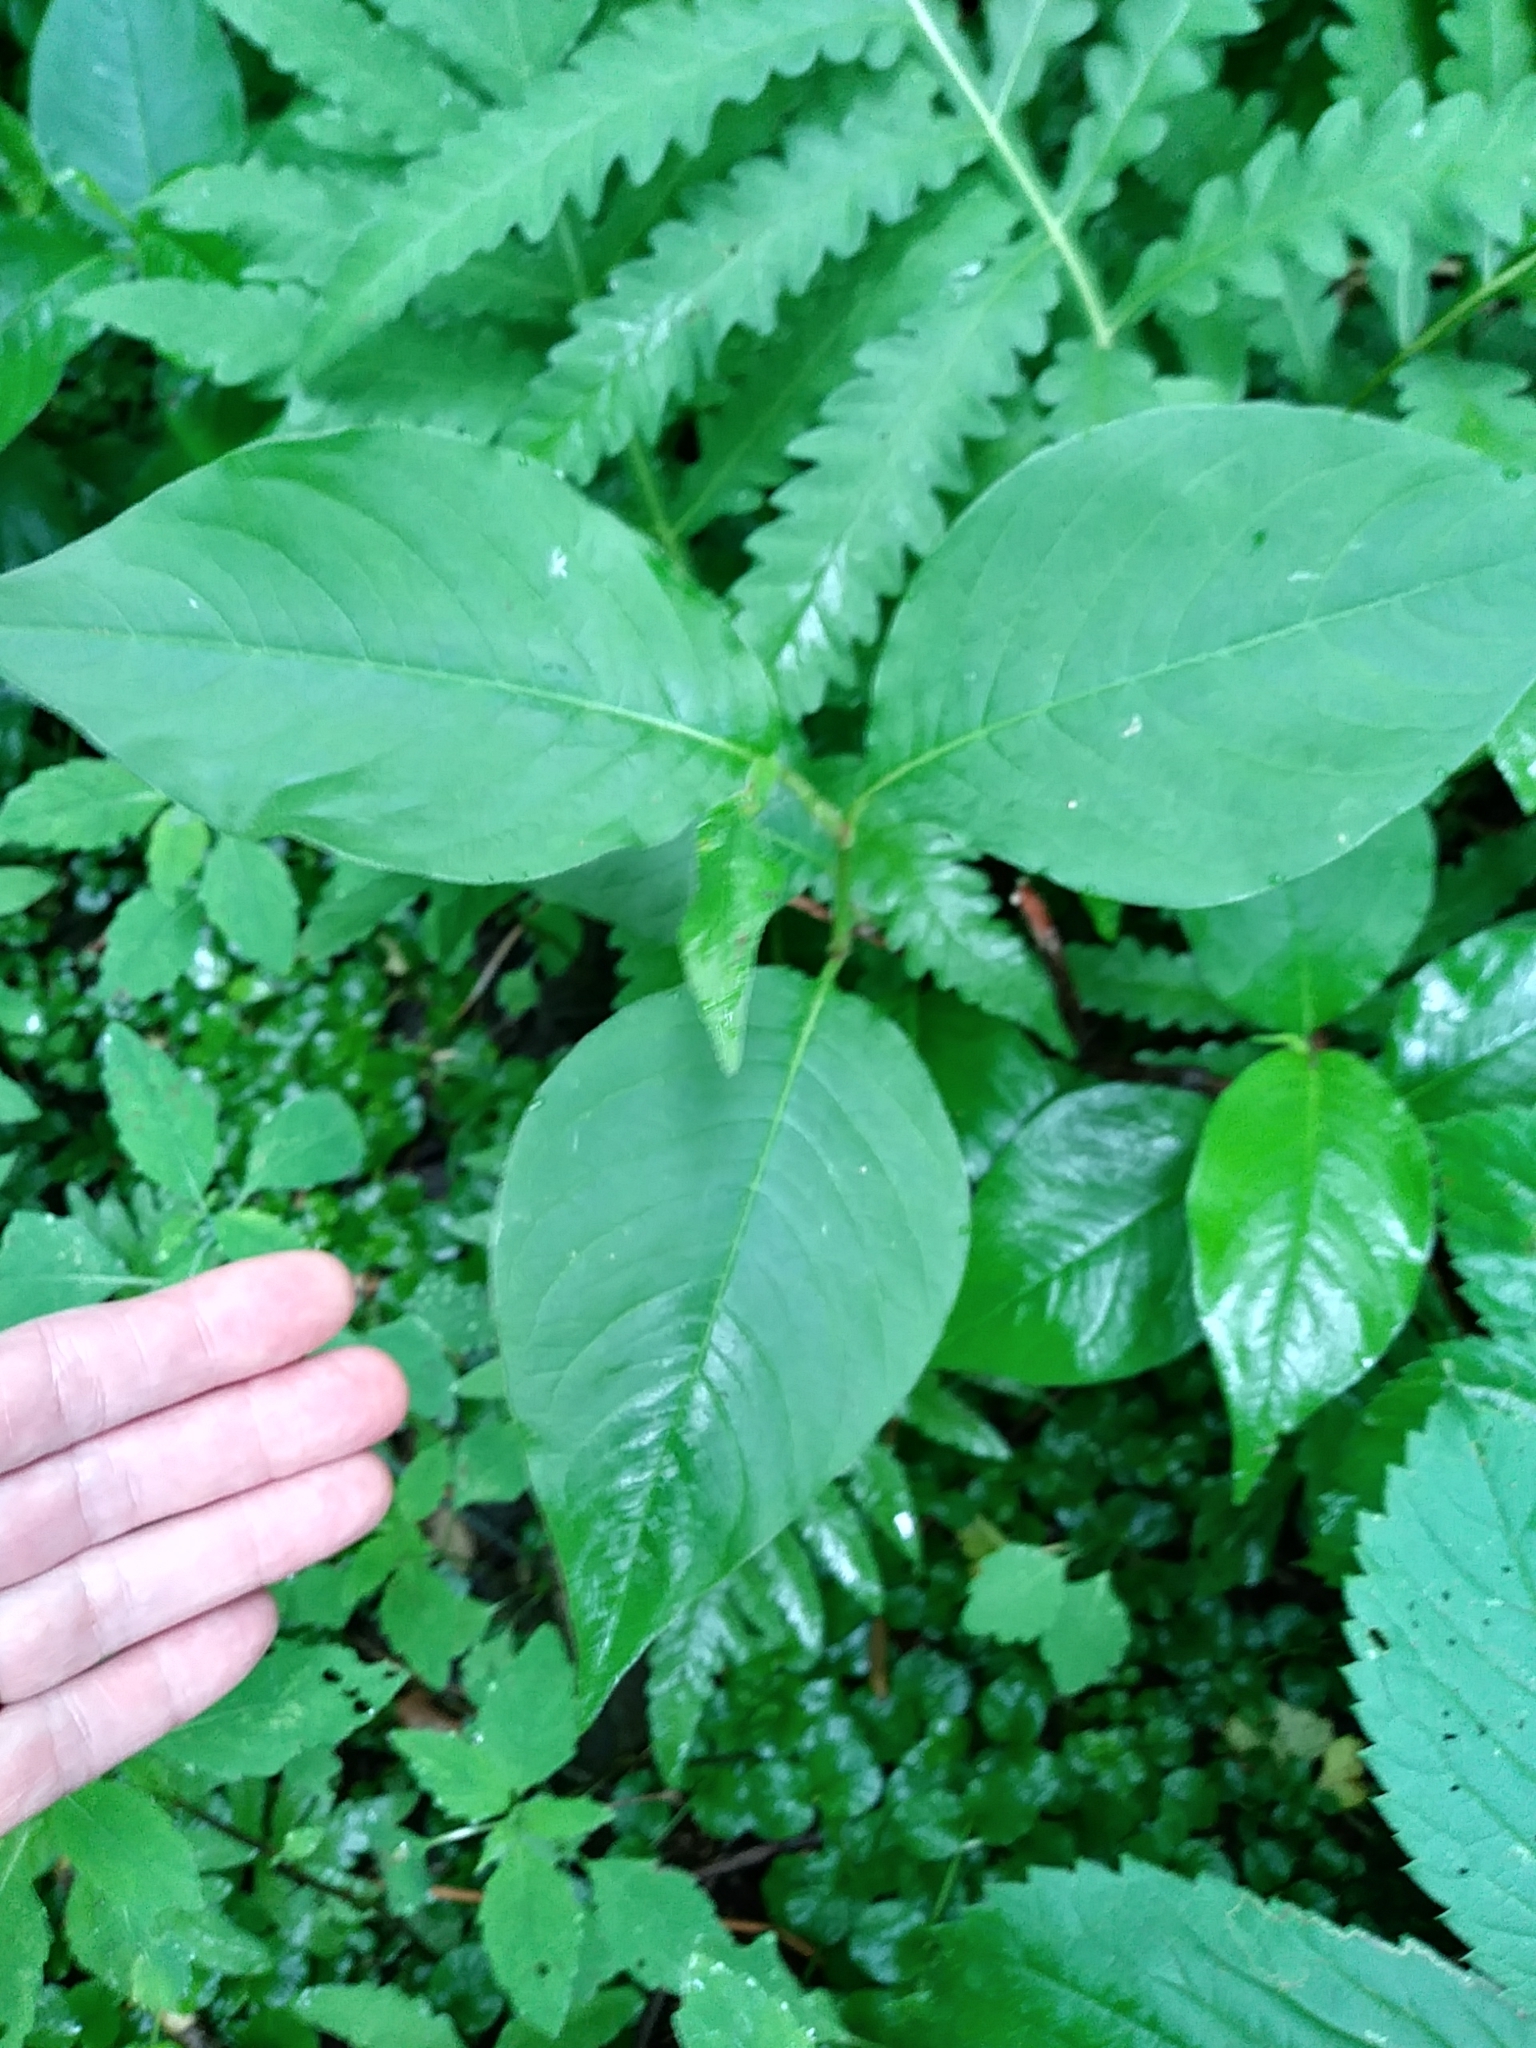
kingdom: Plantae
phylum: Tracheophyta
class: Magnoliopsida
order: Caryophyllales
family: Polygonaceae
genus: Persicaria
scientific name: Persicaria virginiana
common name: Jumpseed
